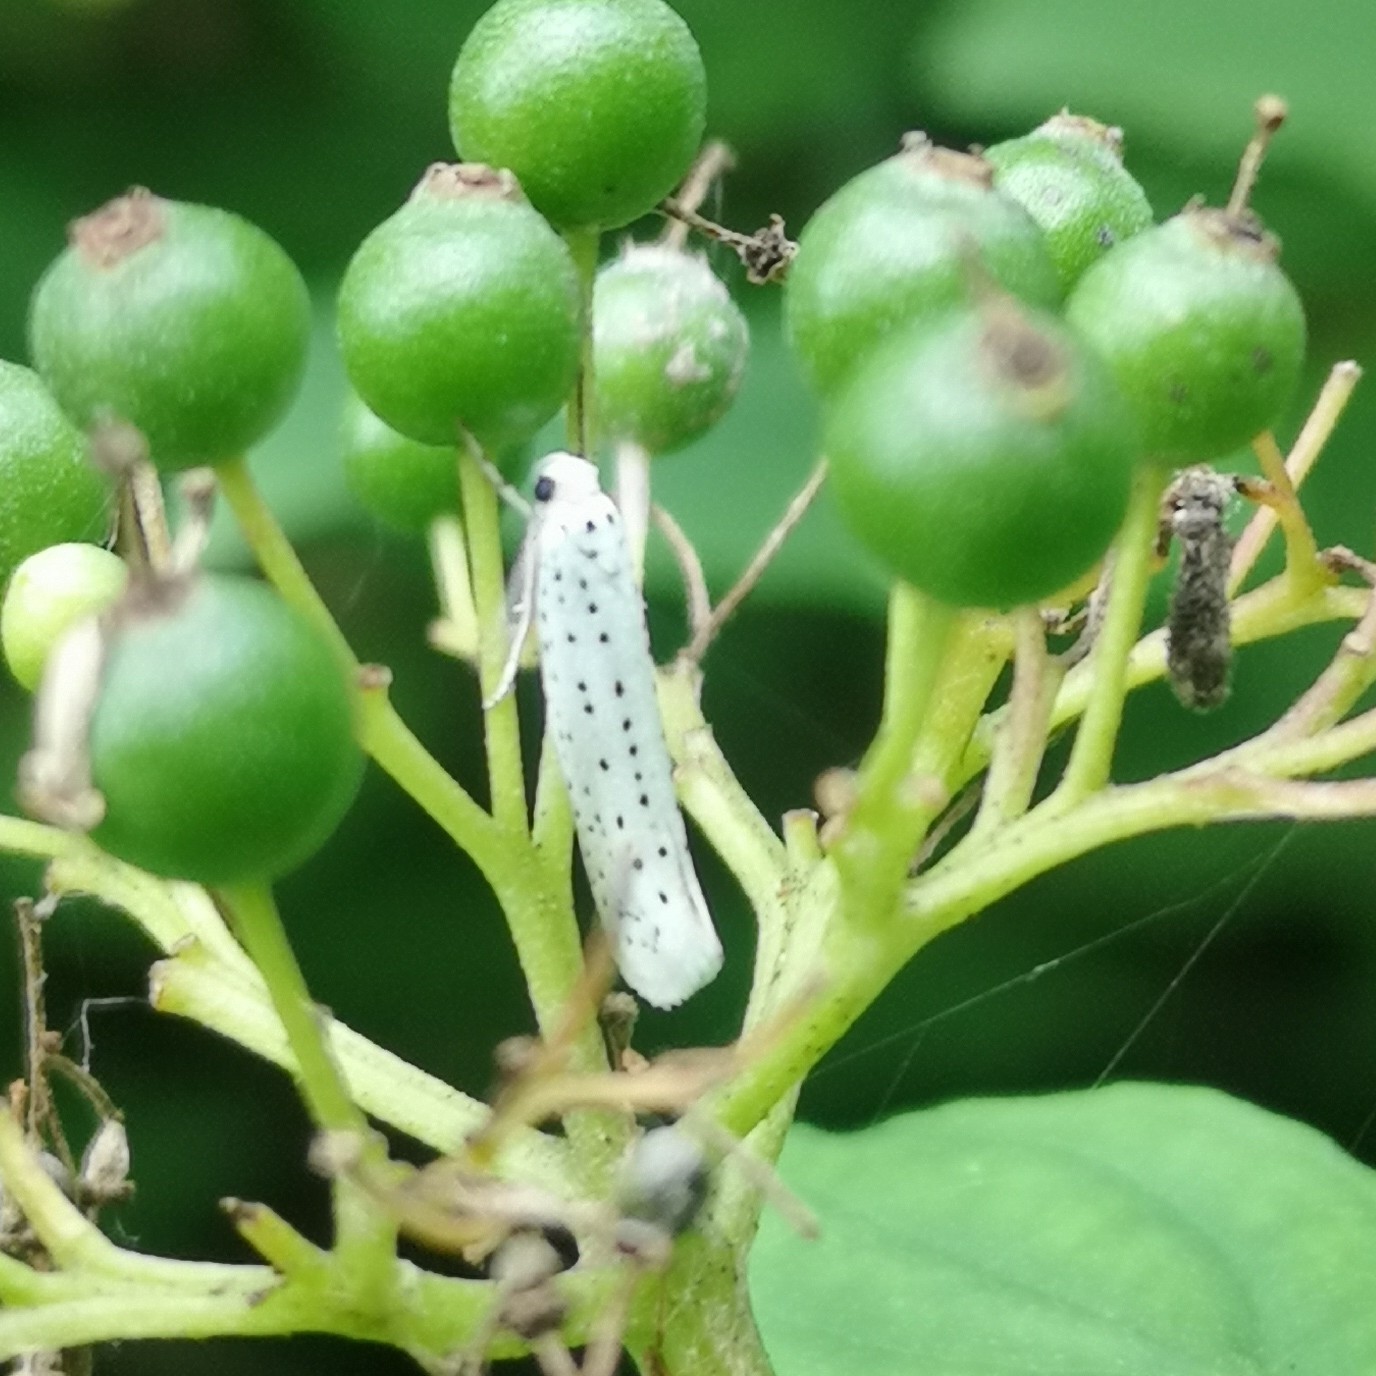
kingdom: Animalia
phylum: Arthropoda
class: Insecta
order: Lepidoptera
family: Yponomeutidae
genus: Yponomeuta
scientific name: Yponomeuta evonymella
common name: Bird-cherry ermine
